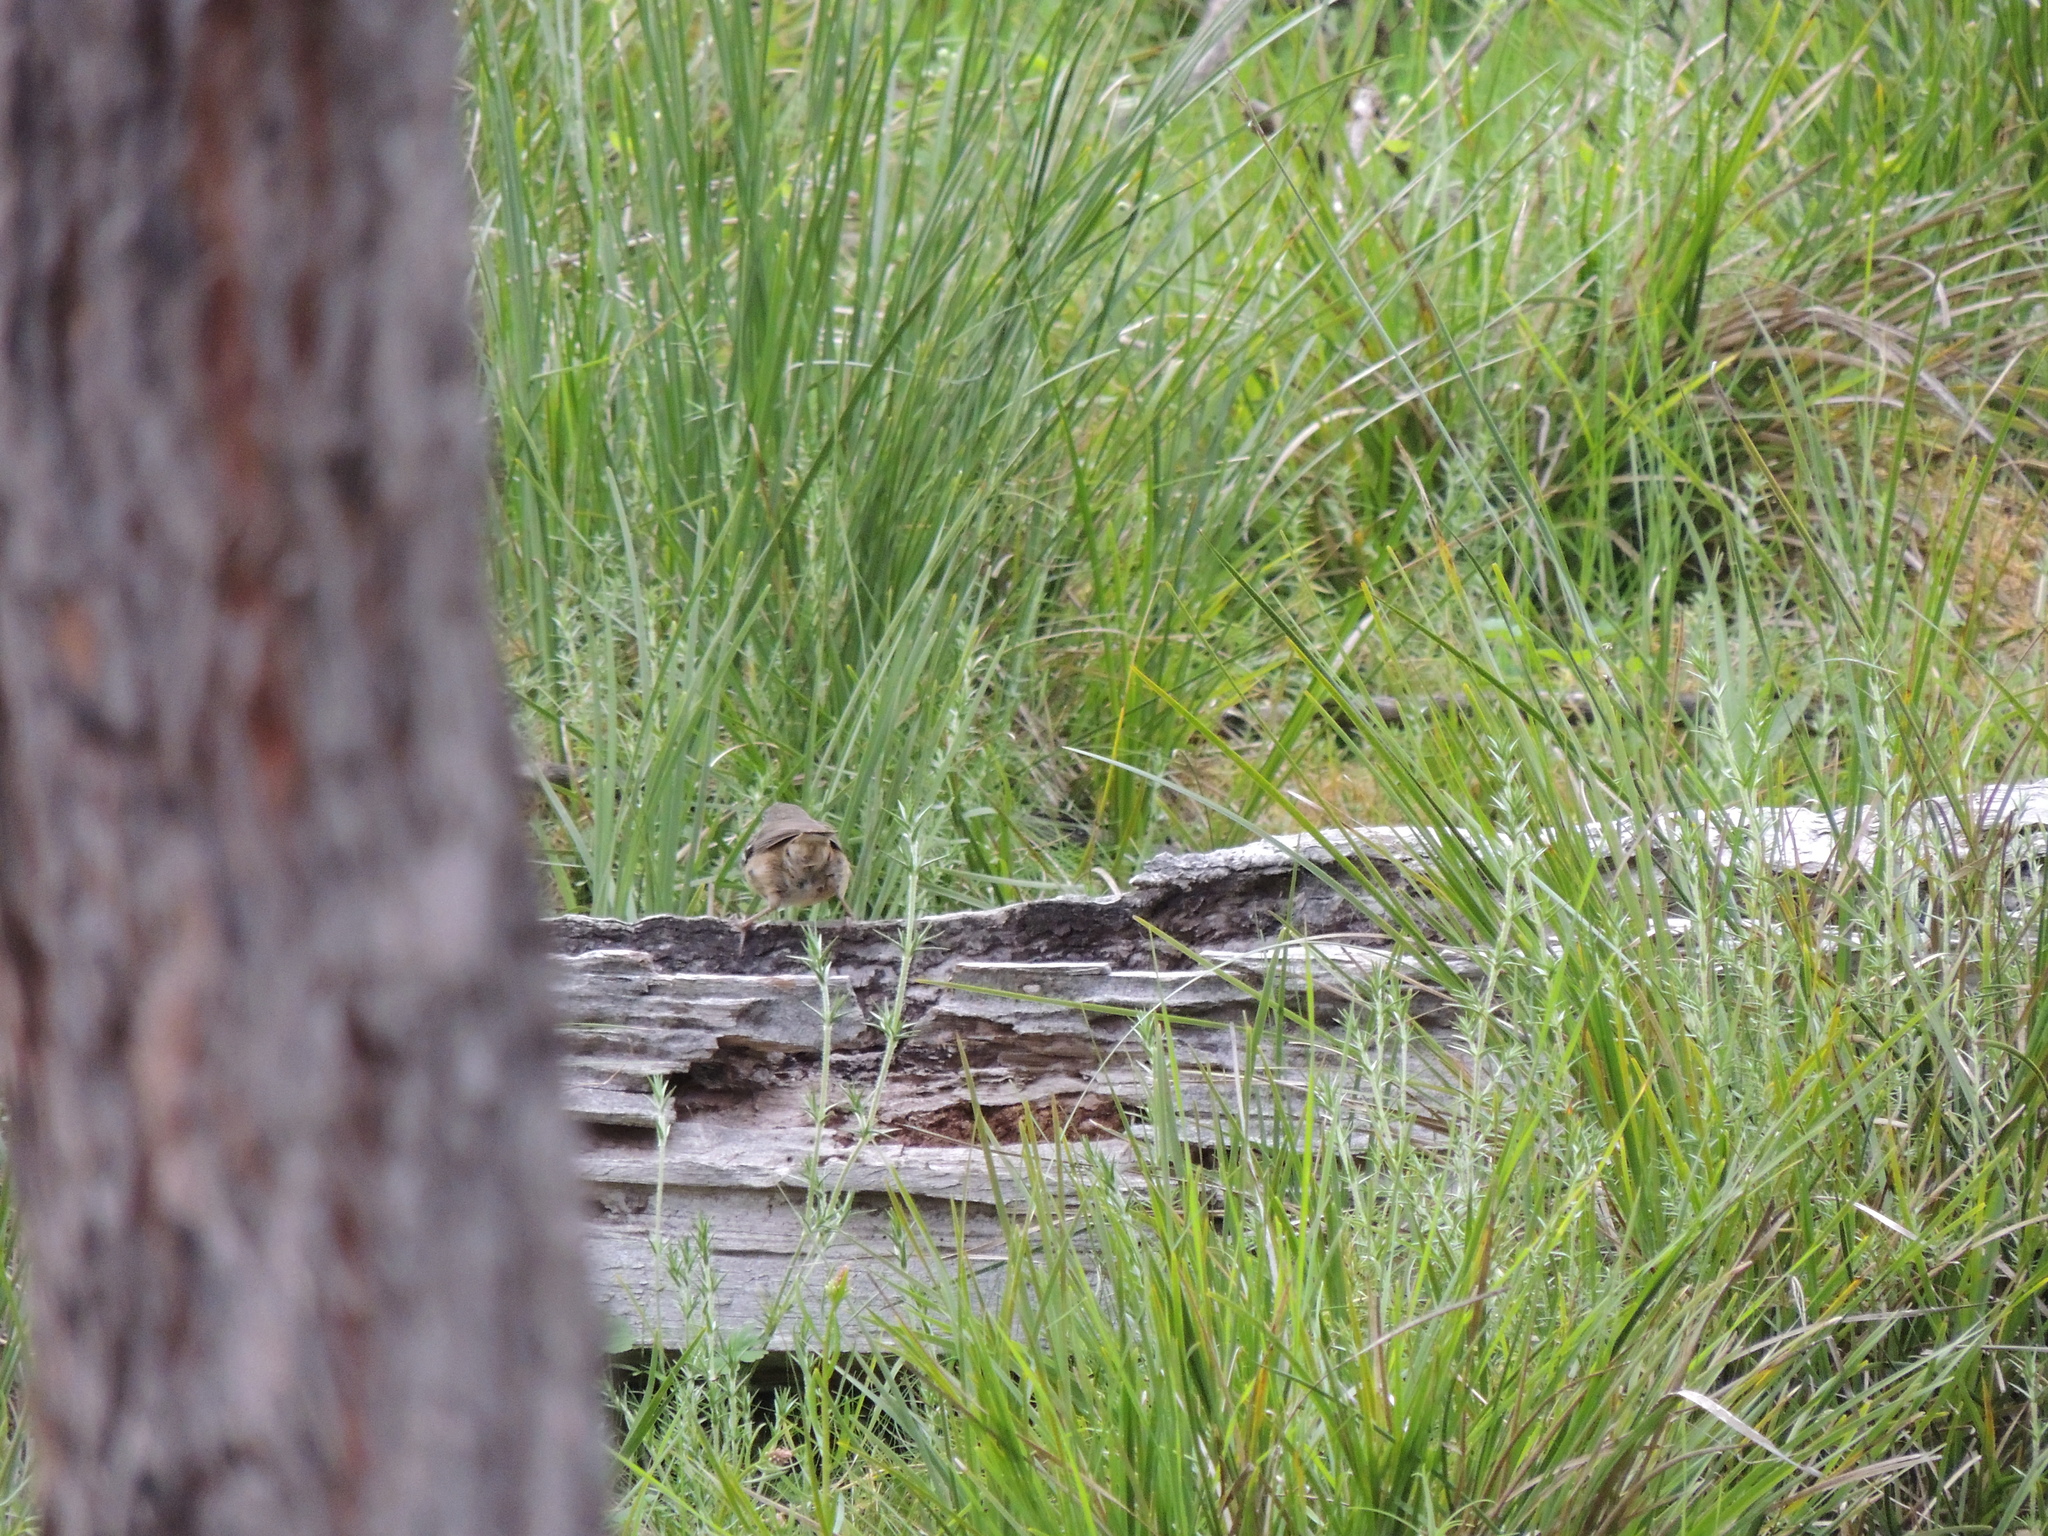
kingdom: Animalia
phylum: Chordata
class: Aves
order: Passeriformes
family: Acanthizidae
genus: Sericornis
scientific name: Sericornis frontalis
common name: White-browed scrubwren
